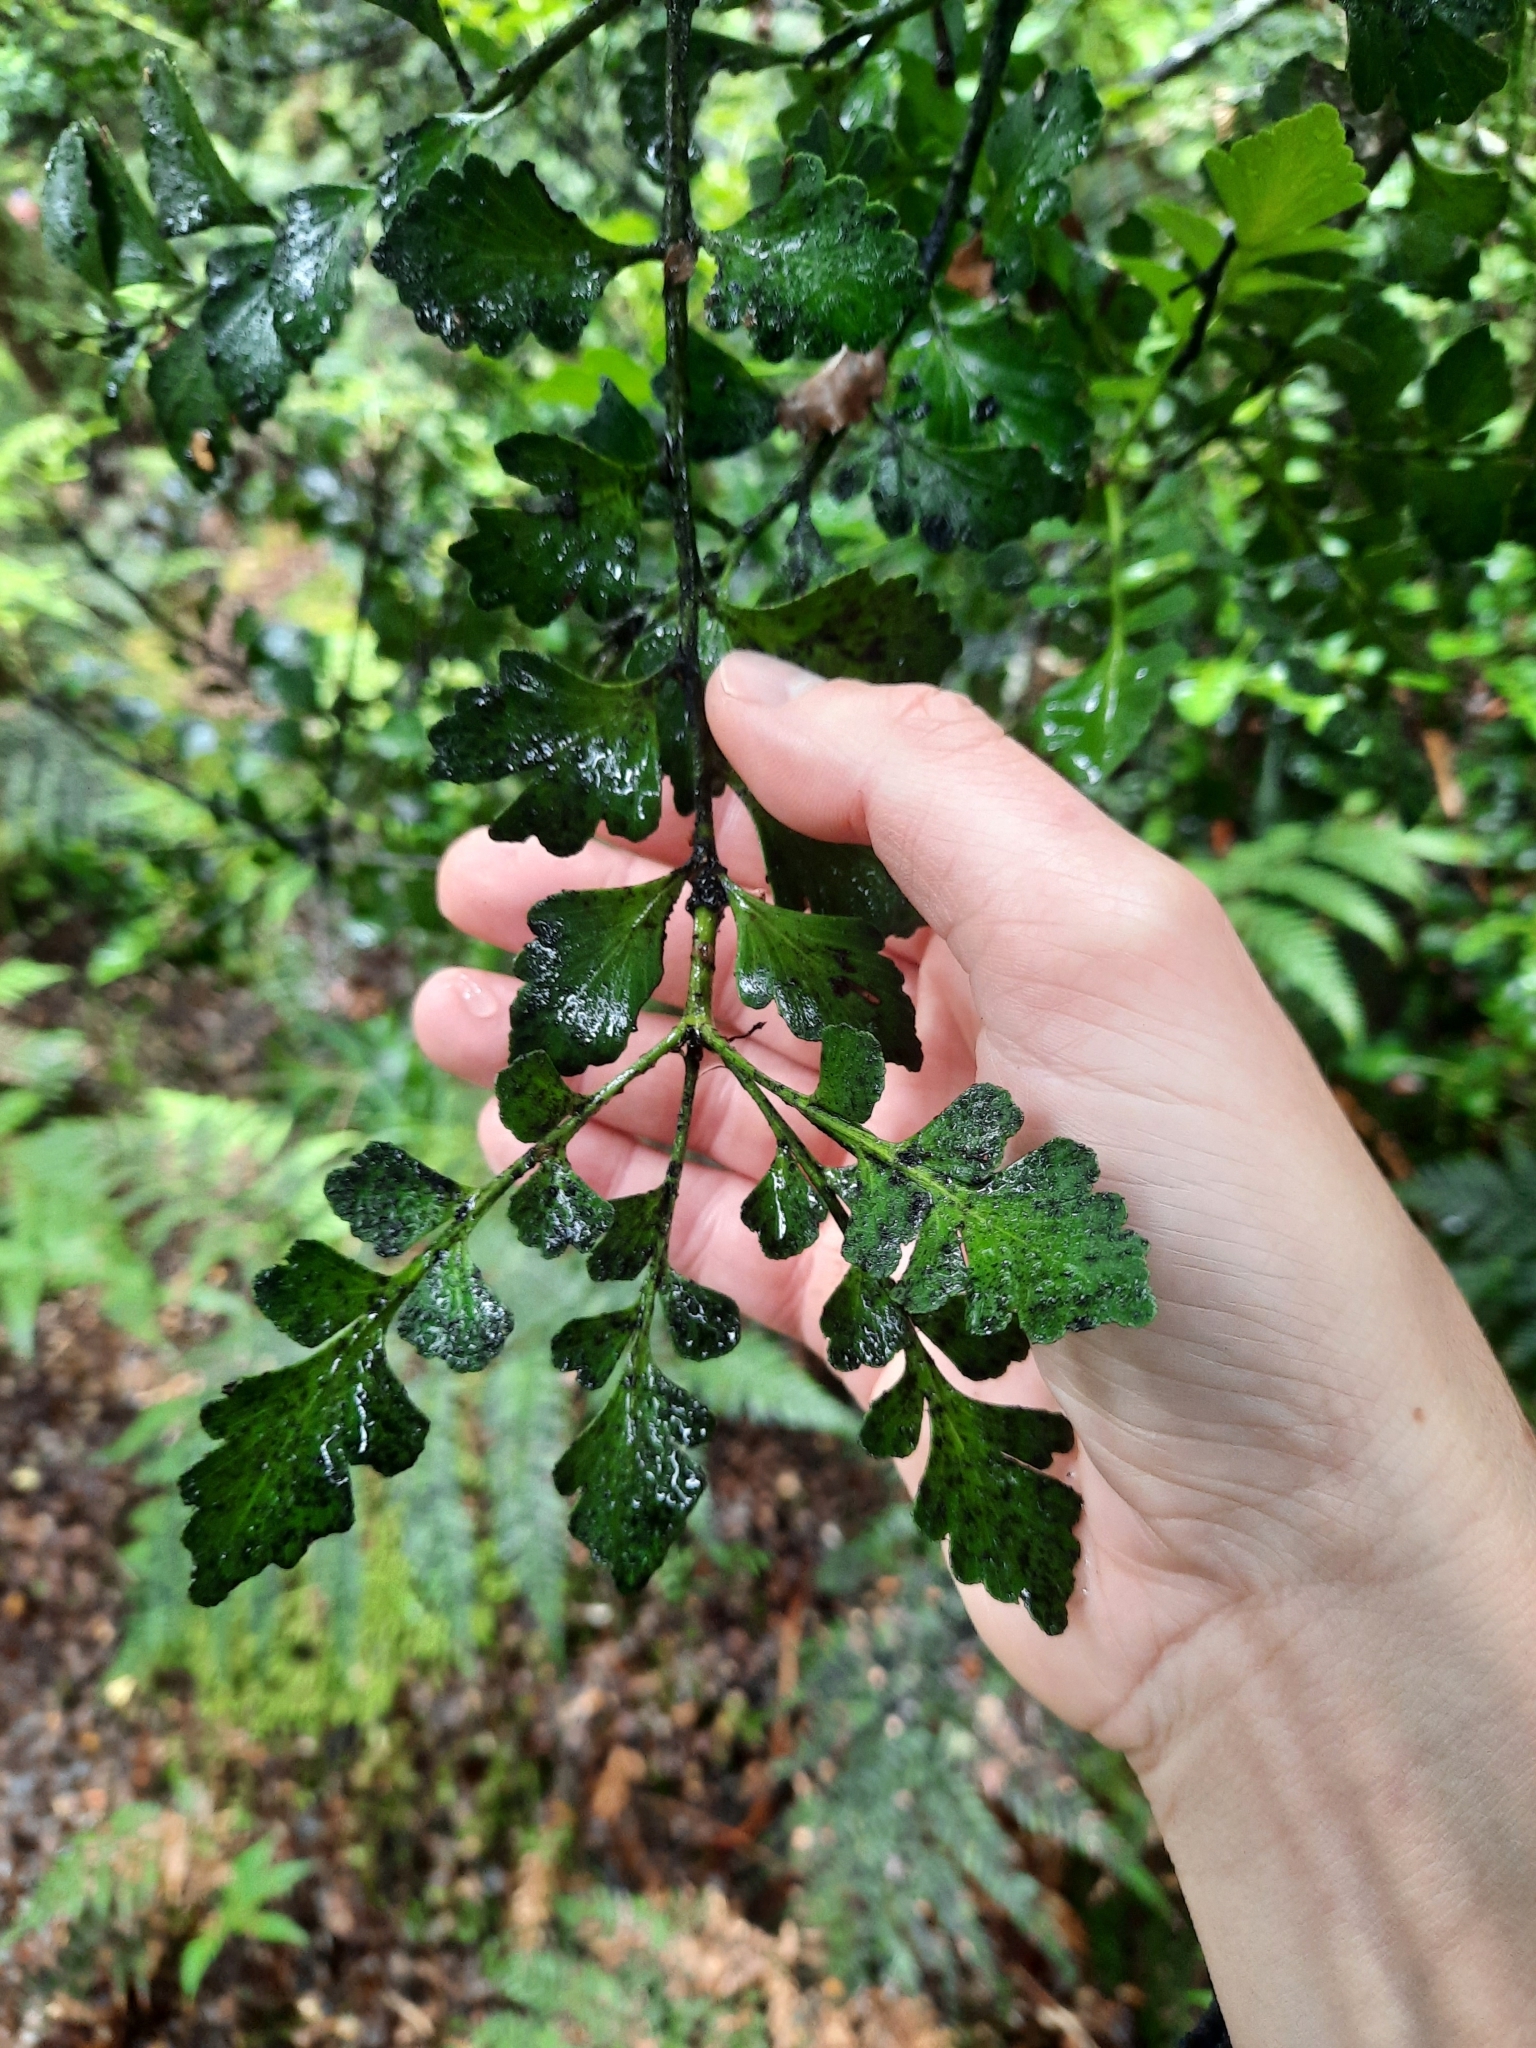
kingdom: Plantae
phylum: Tracheophyta
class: Pinopsida
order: Pinales
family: Phyllocladaceae
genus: Phyllocladus
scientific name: Phyllocladus toatoa
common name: Celery-top pine
